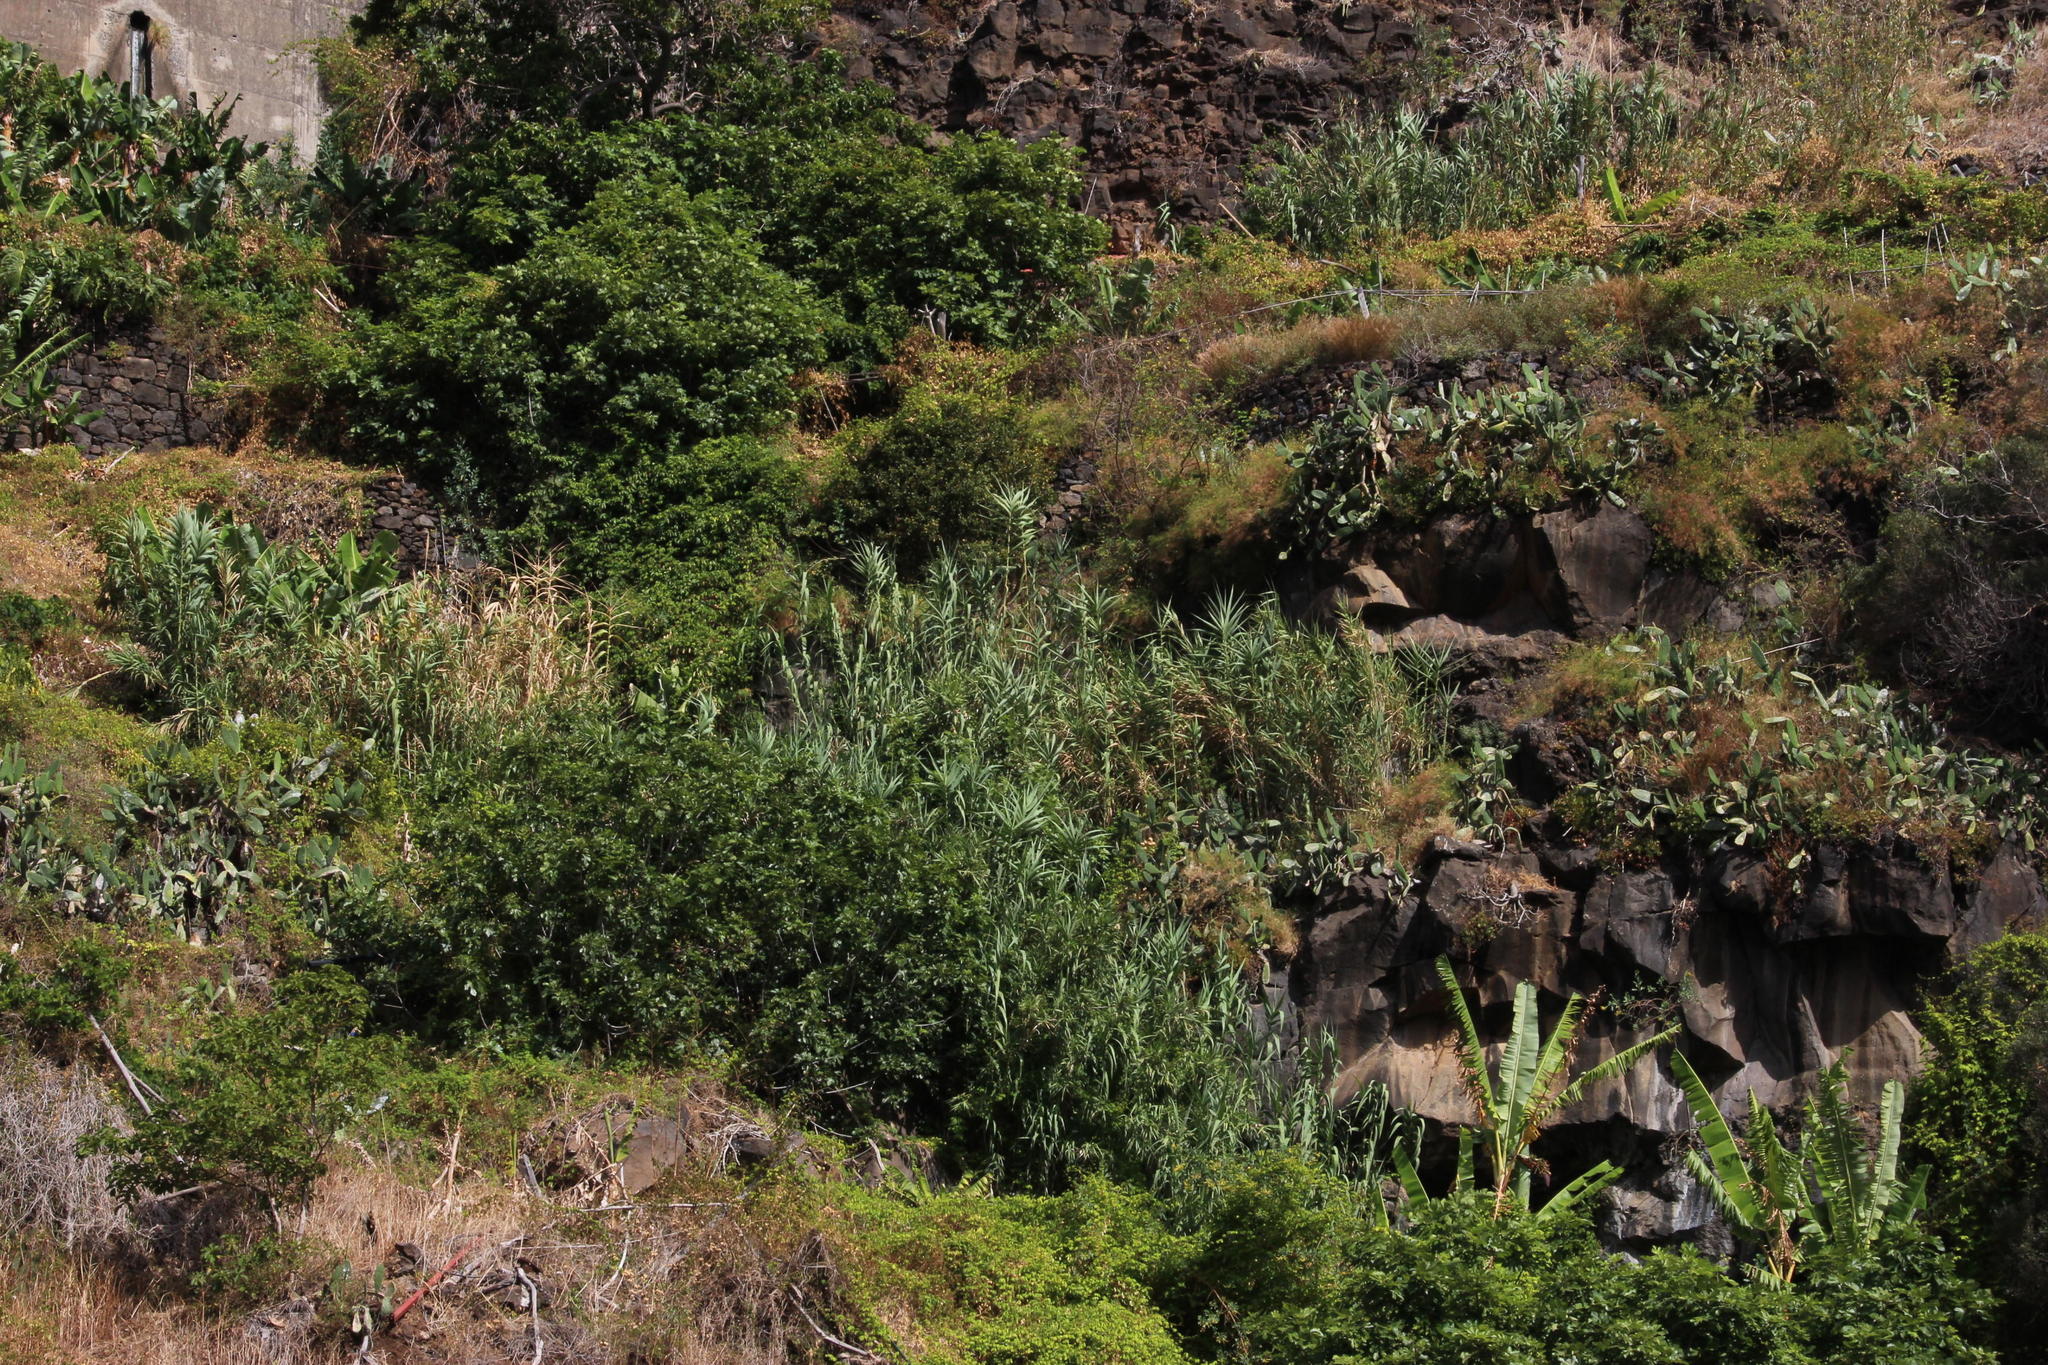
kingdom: Plantae
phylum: Tracheophyta
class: Liliopsida
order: Poales
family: Poaceae
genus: Arundo
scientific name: Arundo donax
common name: Giant reed
